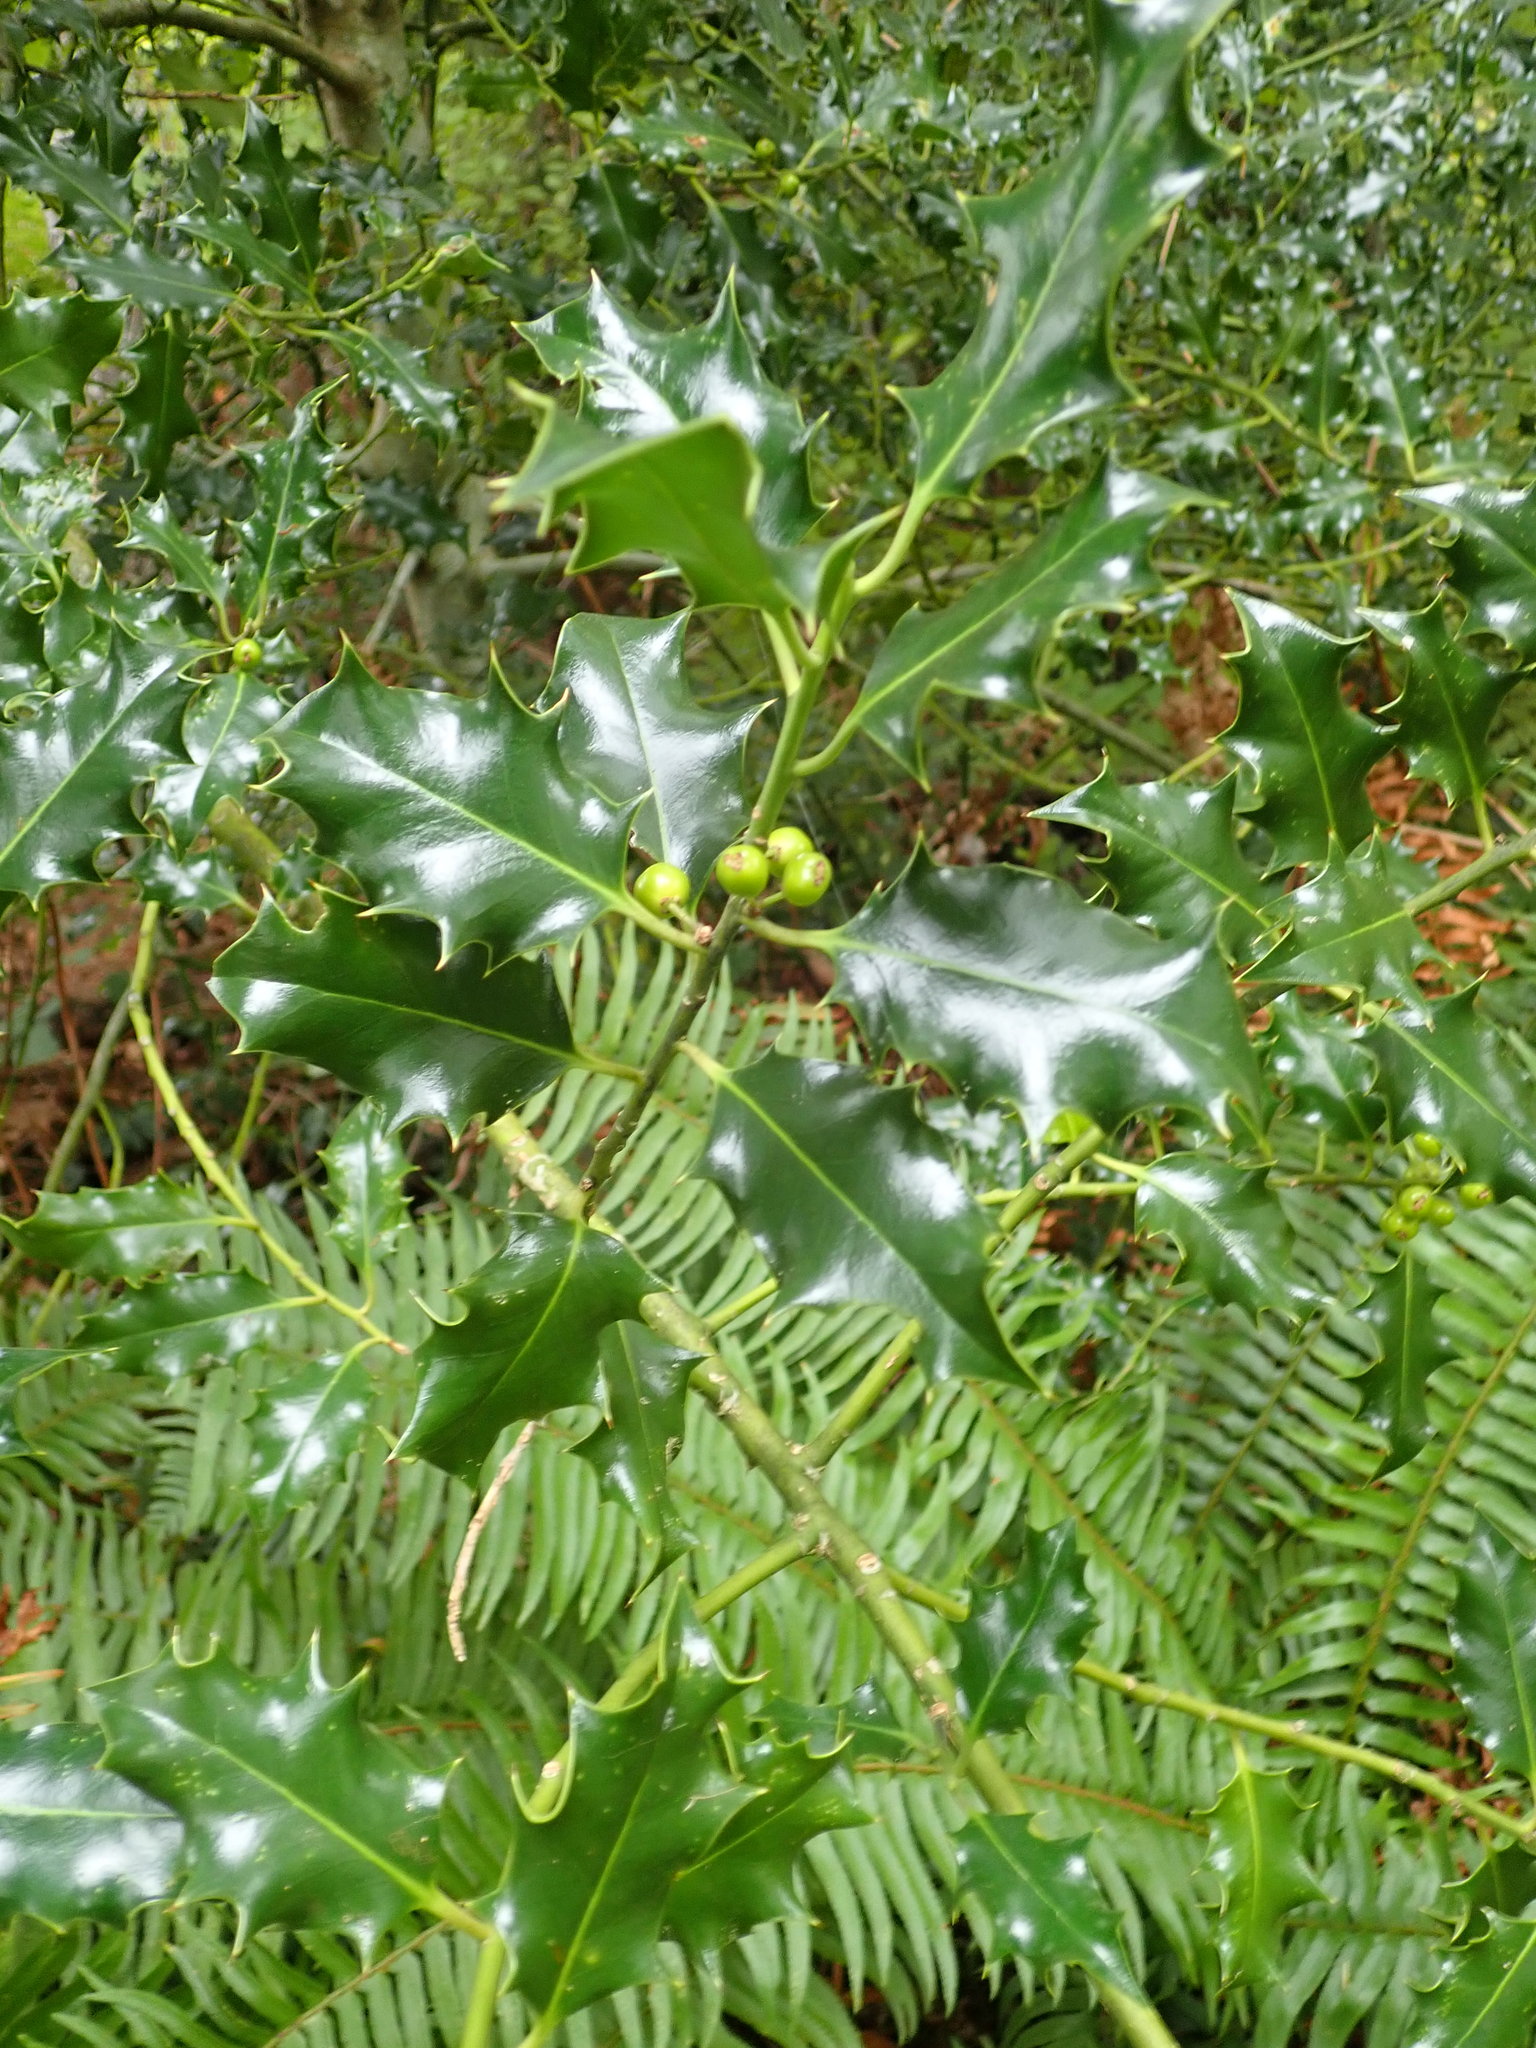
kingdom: Plantae
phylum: Tracheophyta
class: Magnoliopsida
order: Aquifoliales
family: Aquifoliaceae
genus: Ilex
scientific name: Ilex aquifolium
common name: English holly
